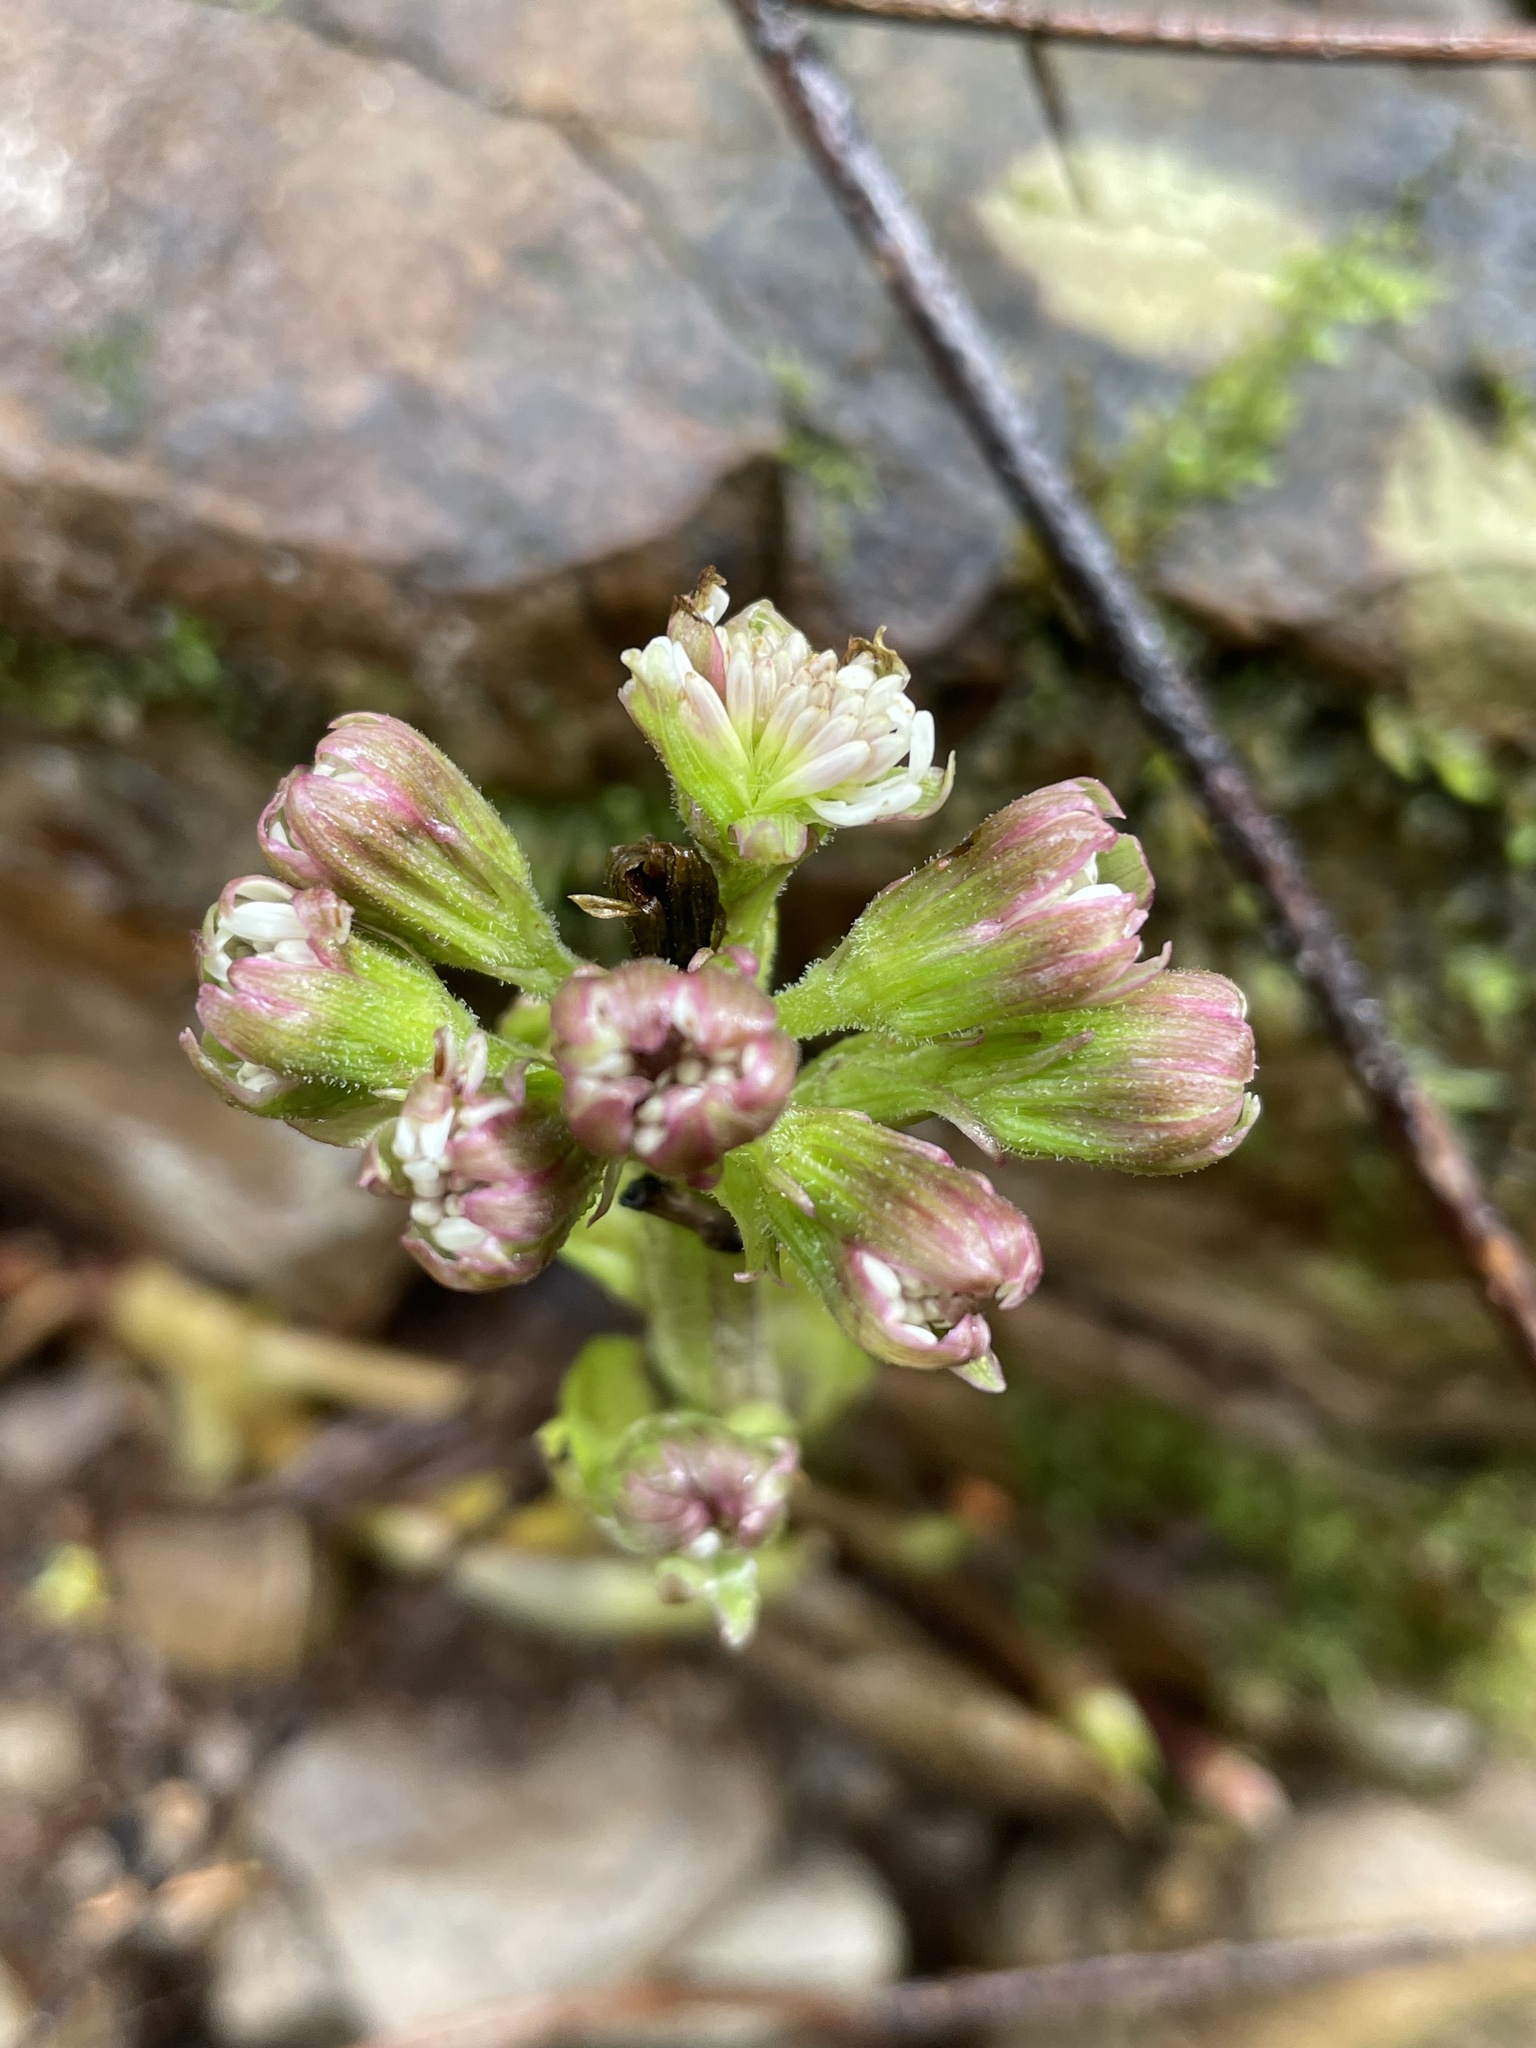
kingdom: Plantae
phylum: Tracheophyta
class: Magnoliopsida
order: Asterales
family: Asteraceae
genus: Petasites
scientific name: Petasites frigidus
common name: Arctic butterbur
